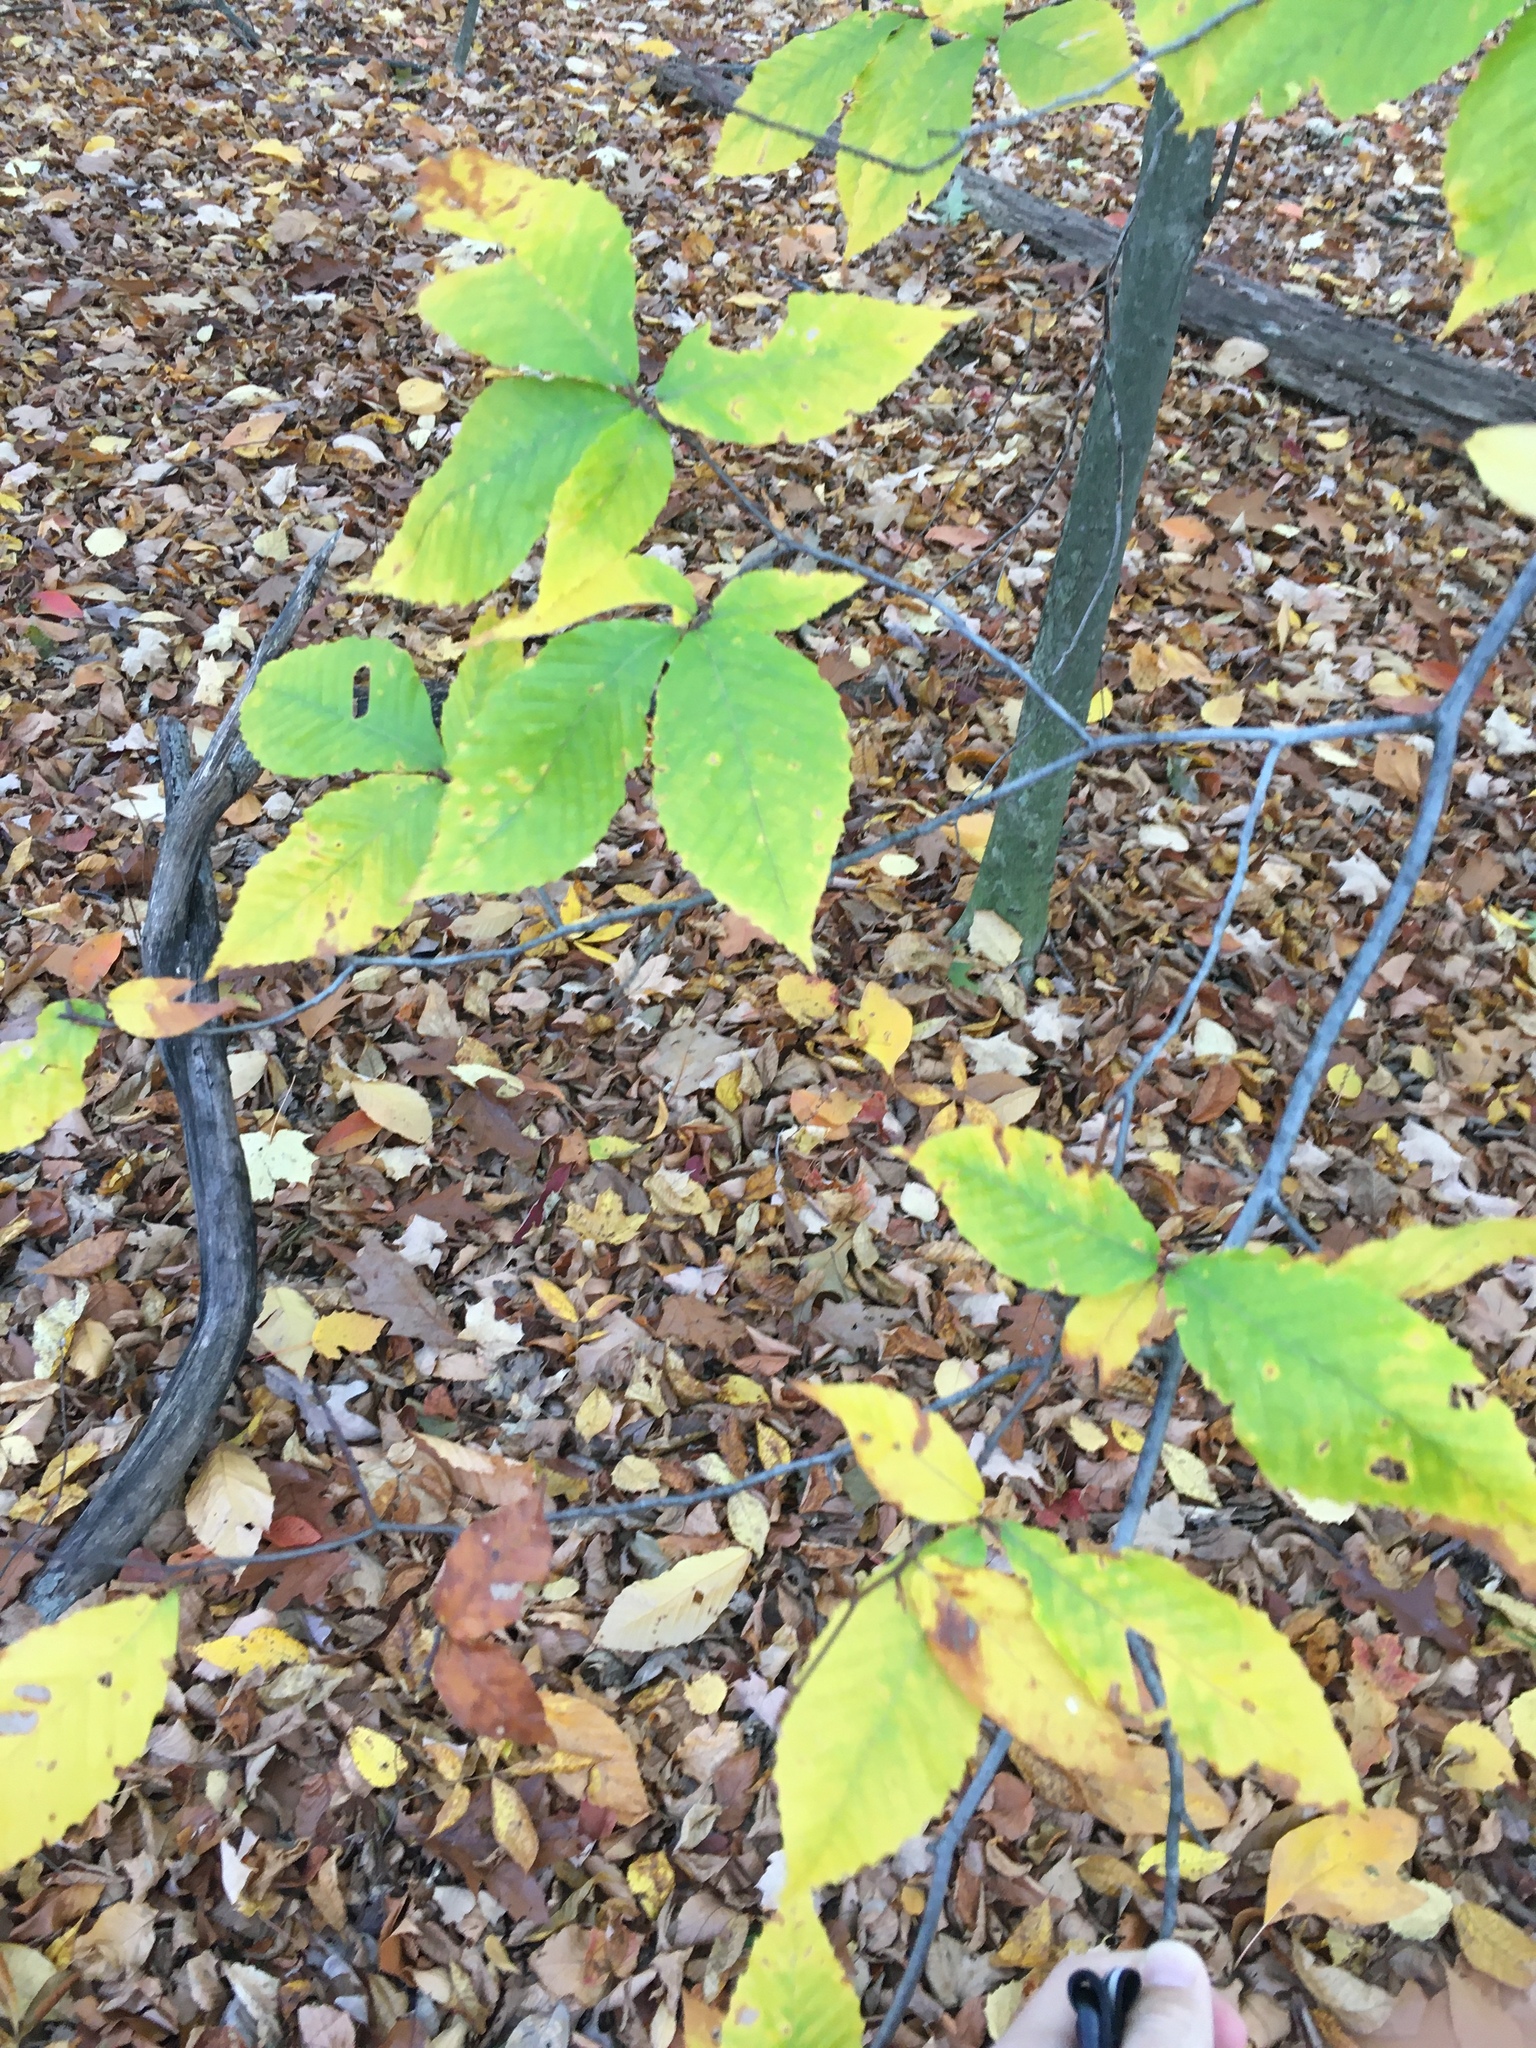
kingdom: Plantae
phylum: Tracheophyta
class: Magnoliopsida
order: Fagales
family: Fagaceae
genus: Fagus
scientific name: Fagus grandifolia
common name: American beech
